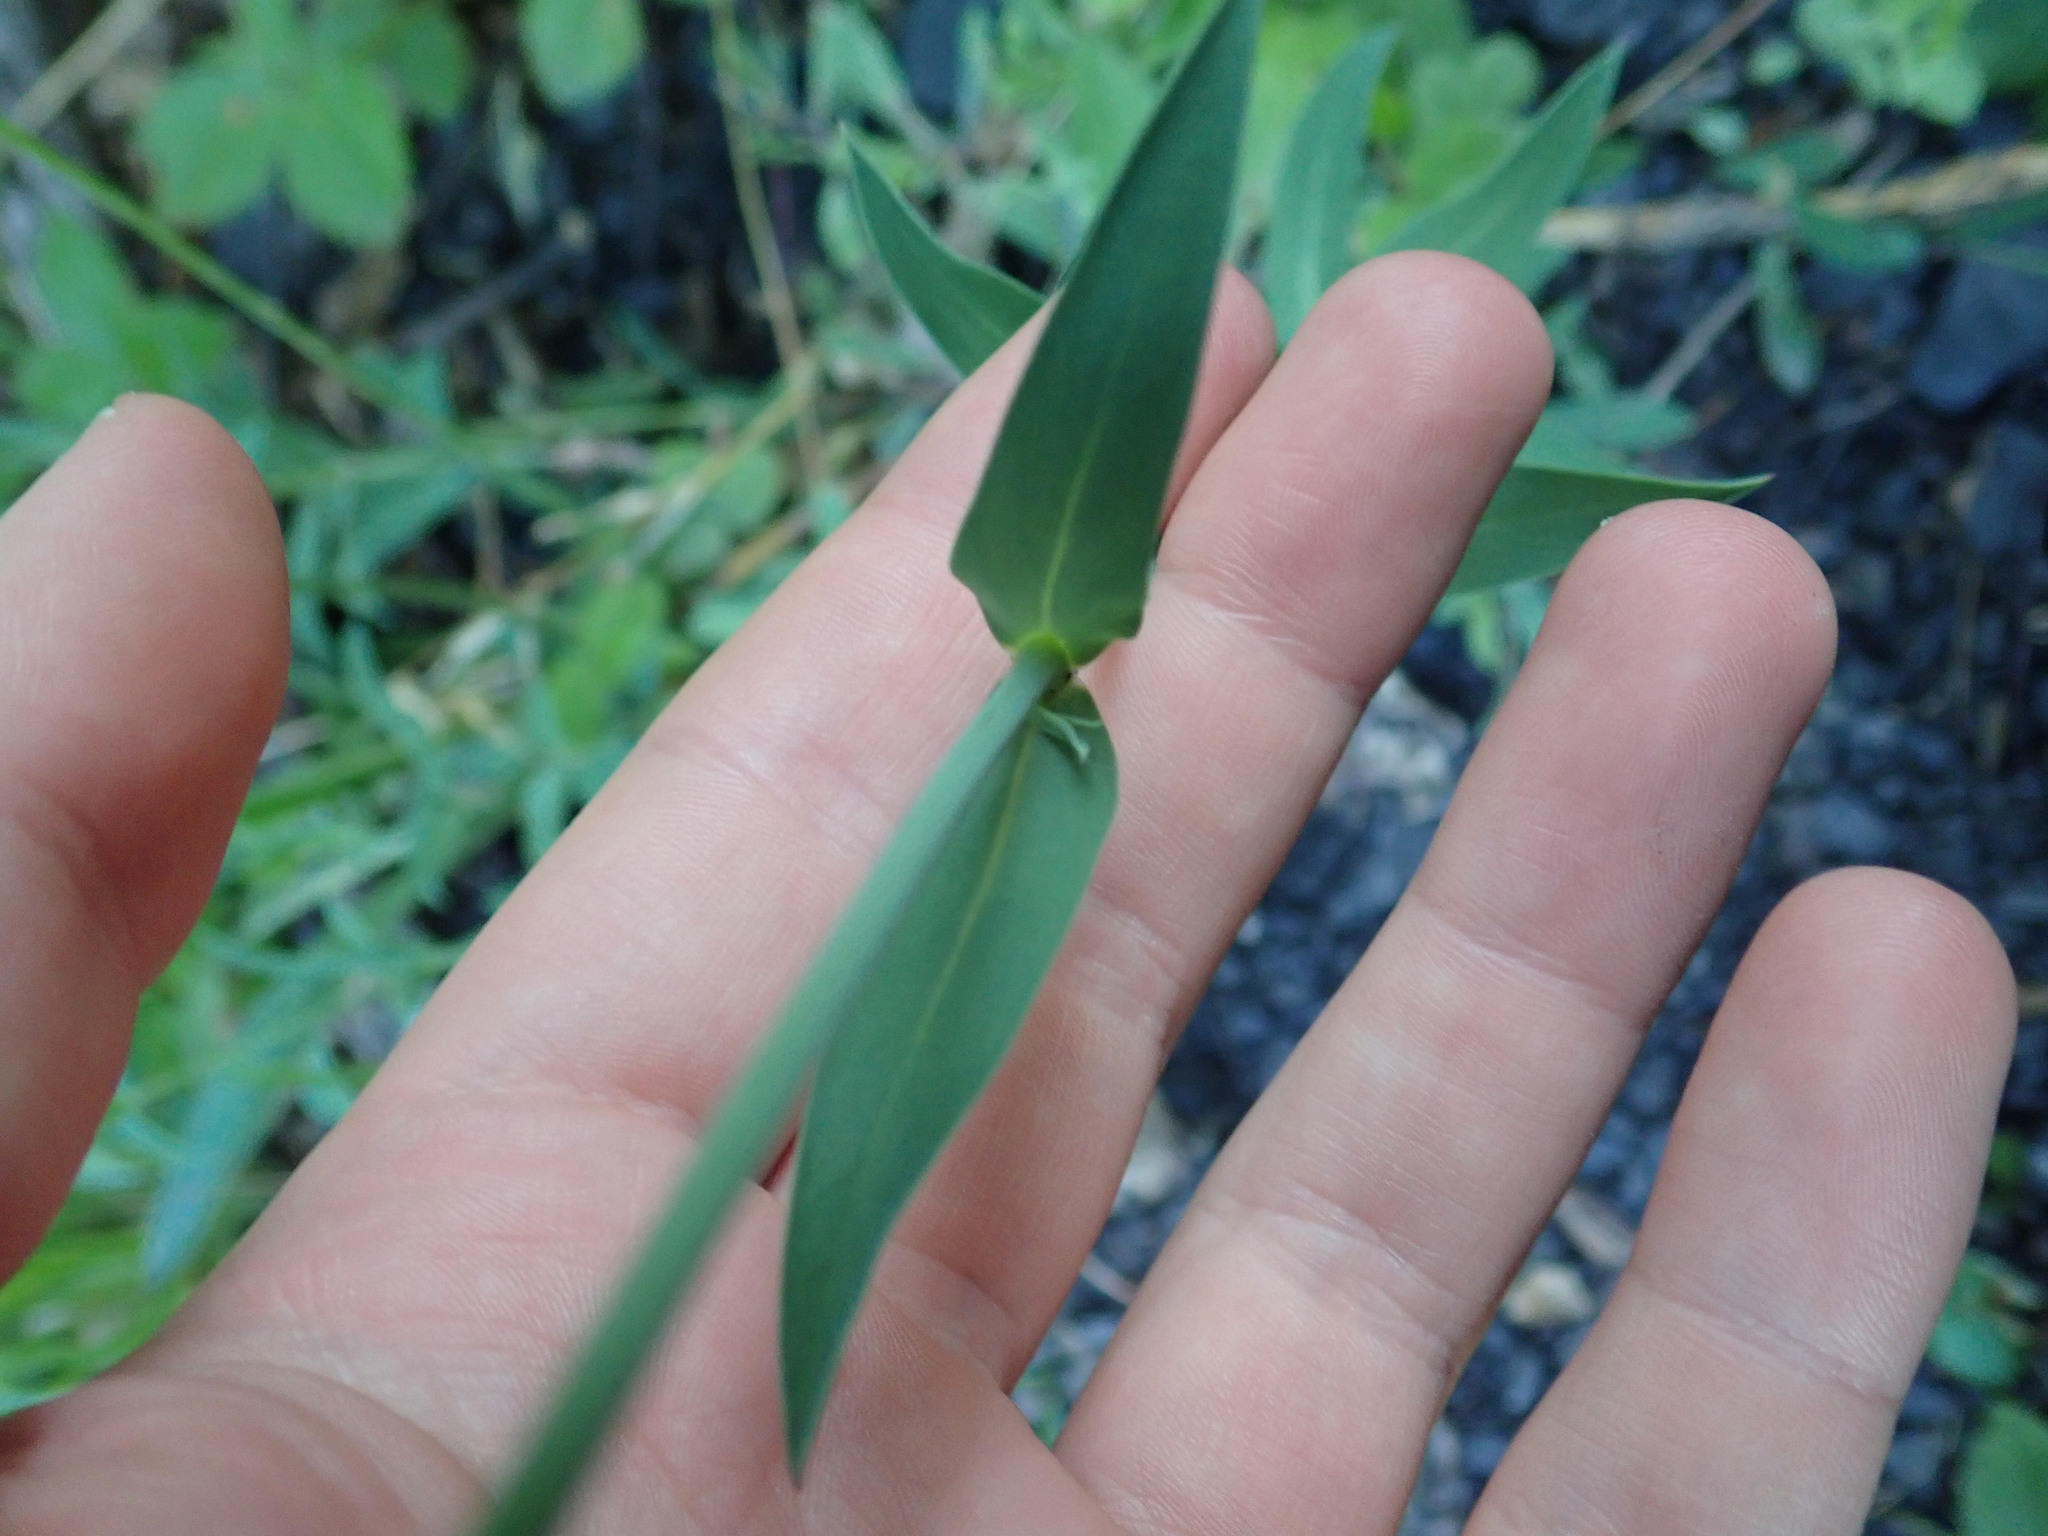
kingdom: Plantae
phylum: Tracheophyta
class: Magnoliopsida
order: Caryophyllales
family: Caryophyllaceae
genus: Silene
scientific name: Silene vulgaris
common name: Bladder campion
